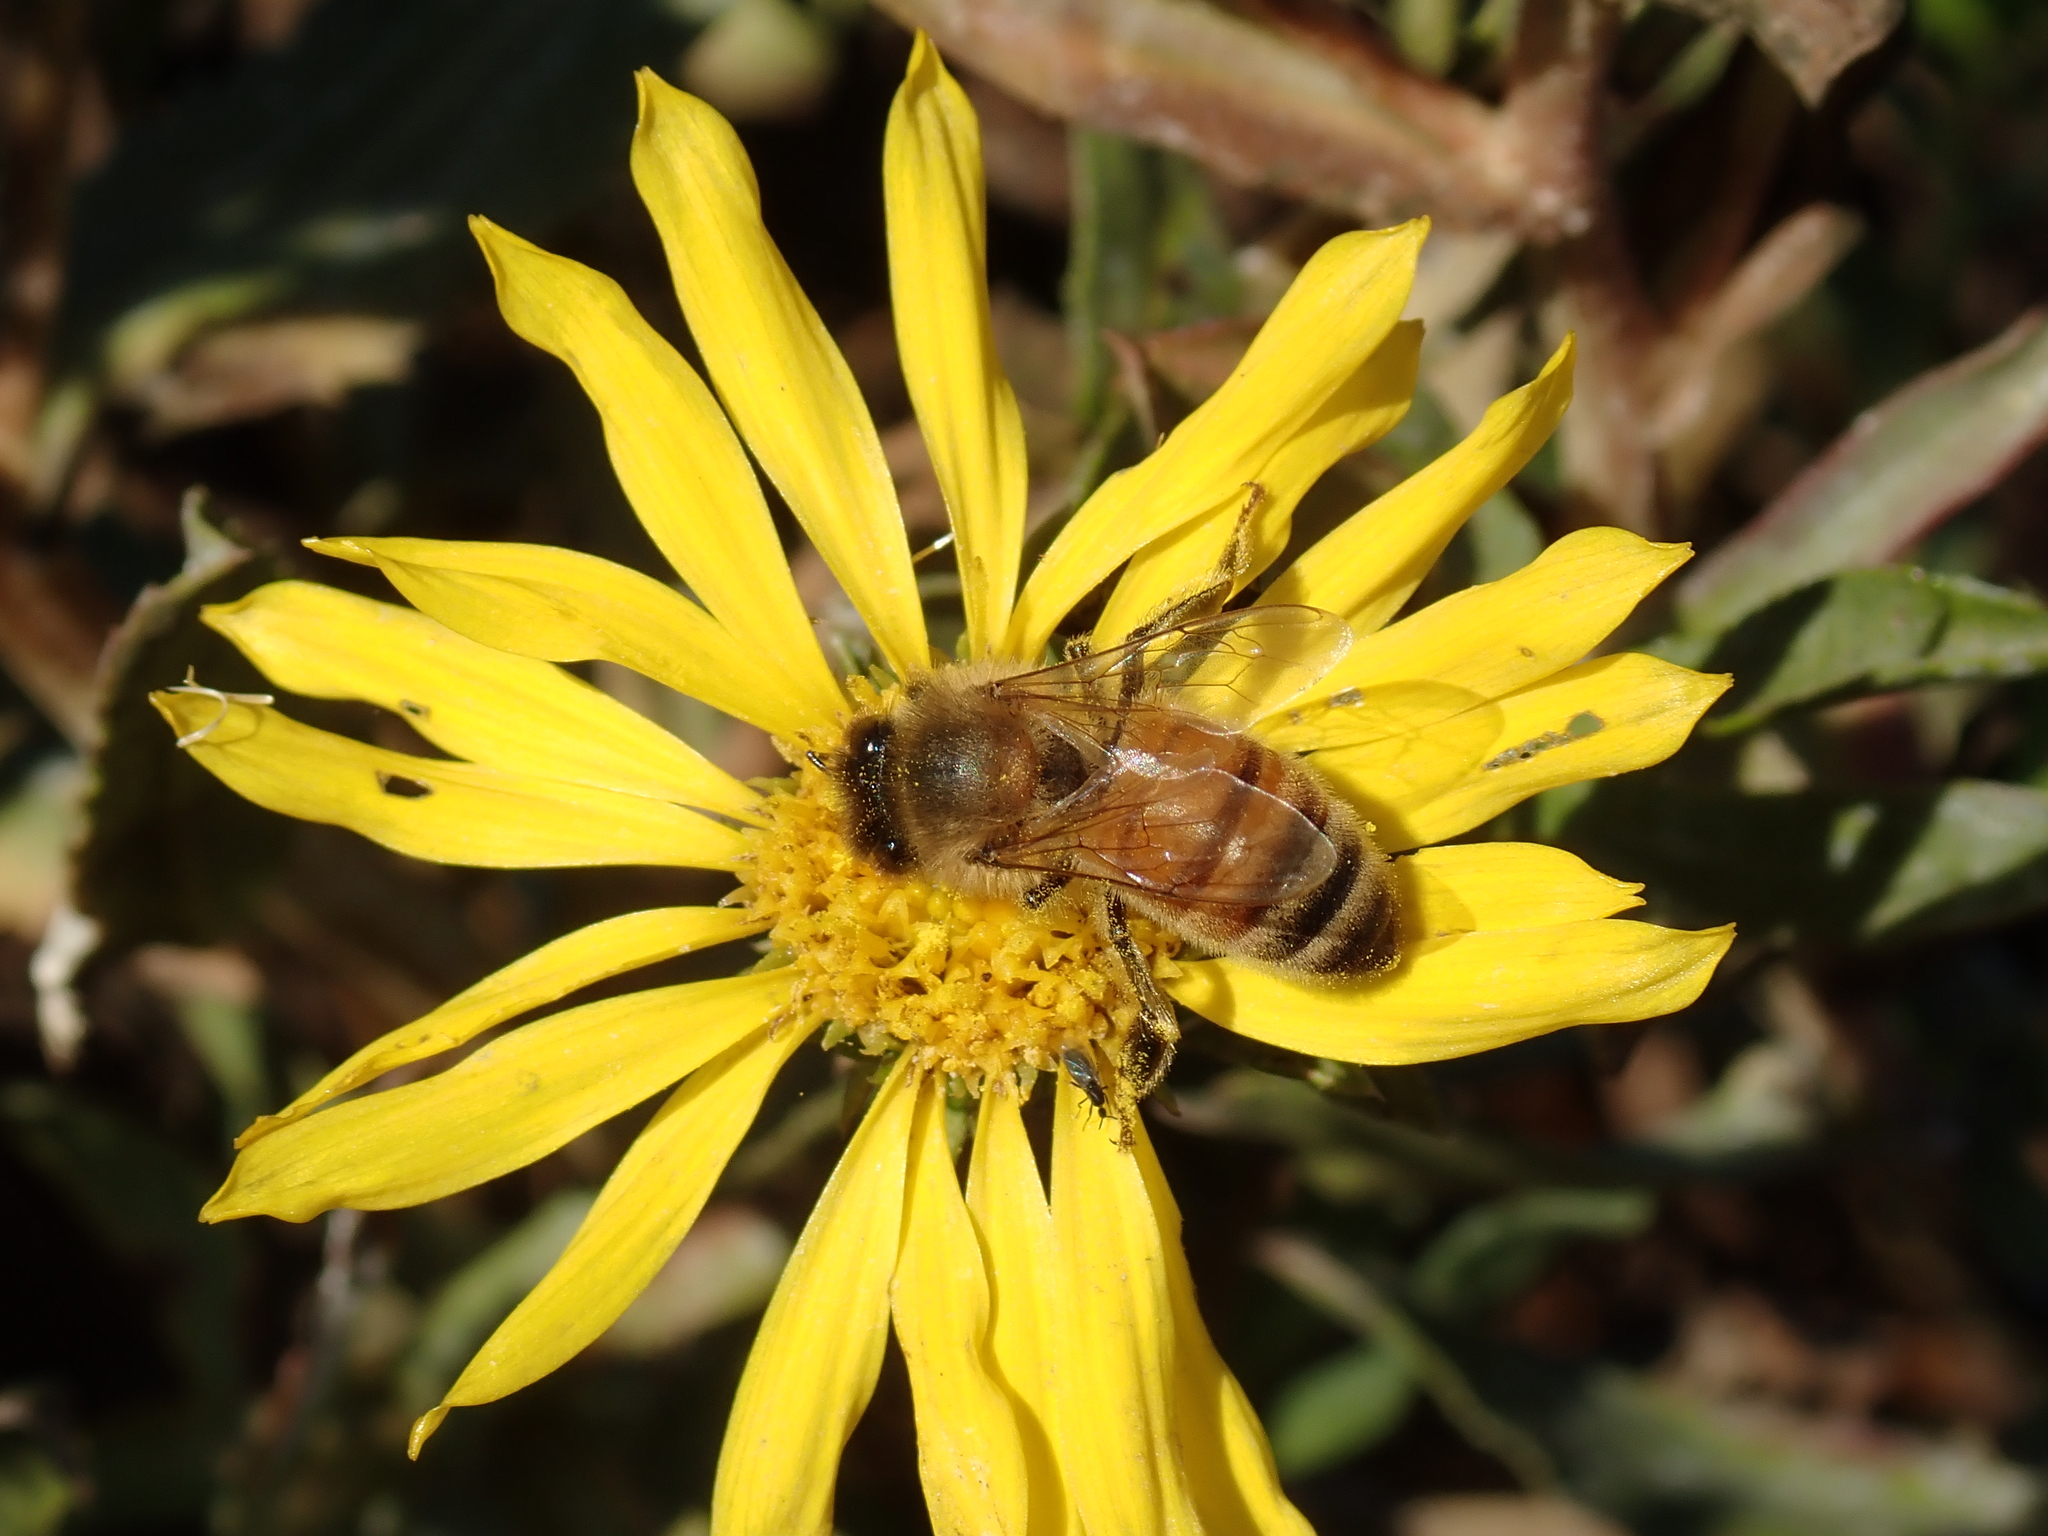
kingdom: Animalia
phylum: Arthropoda
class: Insecta
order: Hymenoptera
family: Apidae
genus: Apis
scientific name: Apis mellifera
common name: Honey bee
